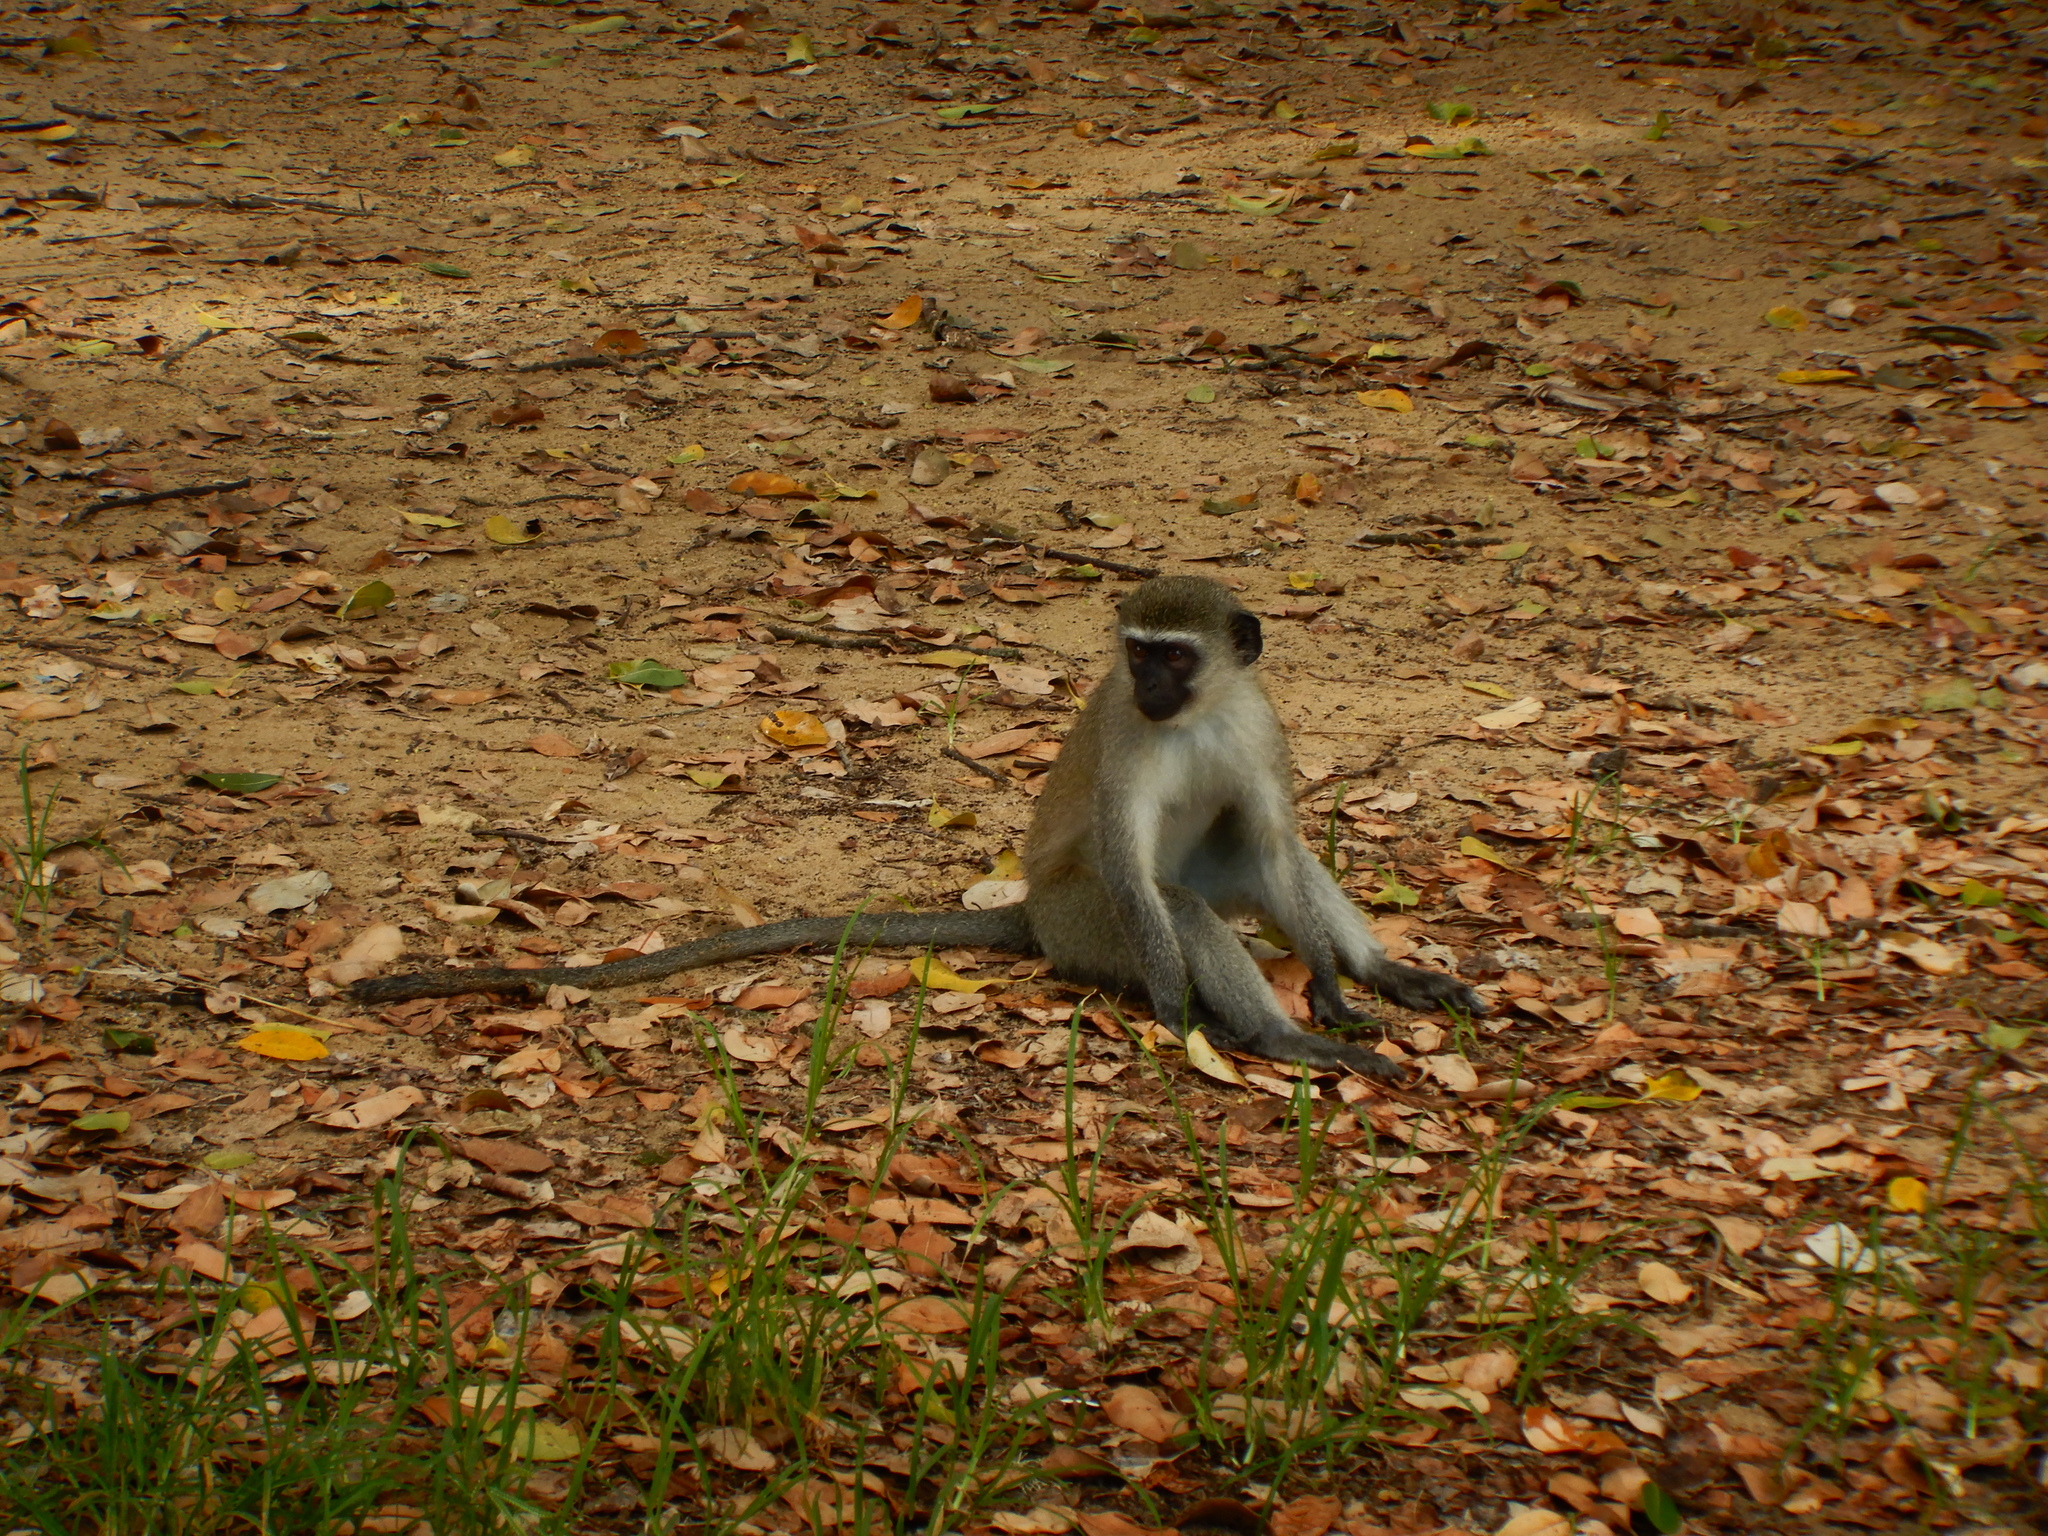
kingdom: Animalia
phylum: Chordata
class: Mammalia
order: Primates
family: Cercopithecidae
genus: Chlorocebus
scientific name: Chlorocebus pygerythrus
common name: Vervet monkey
